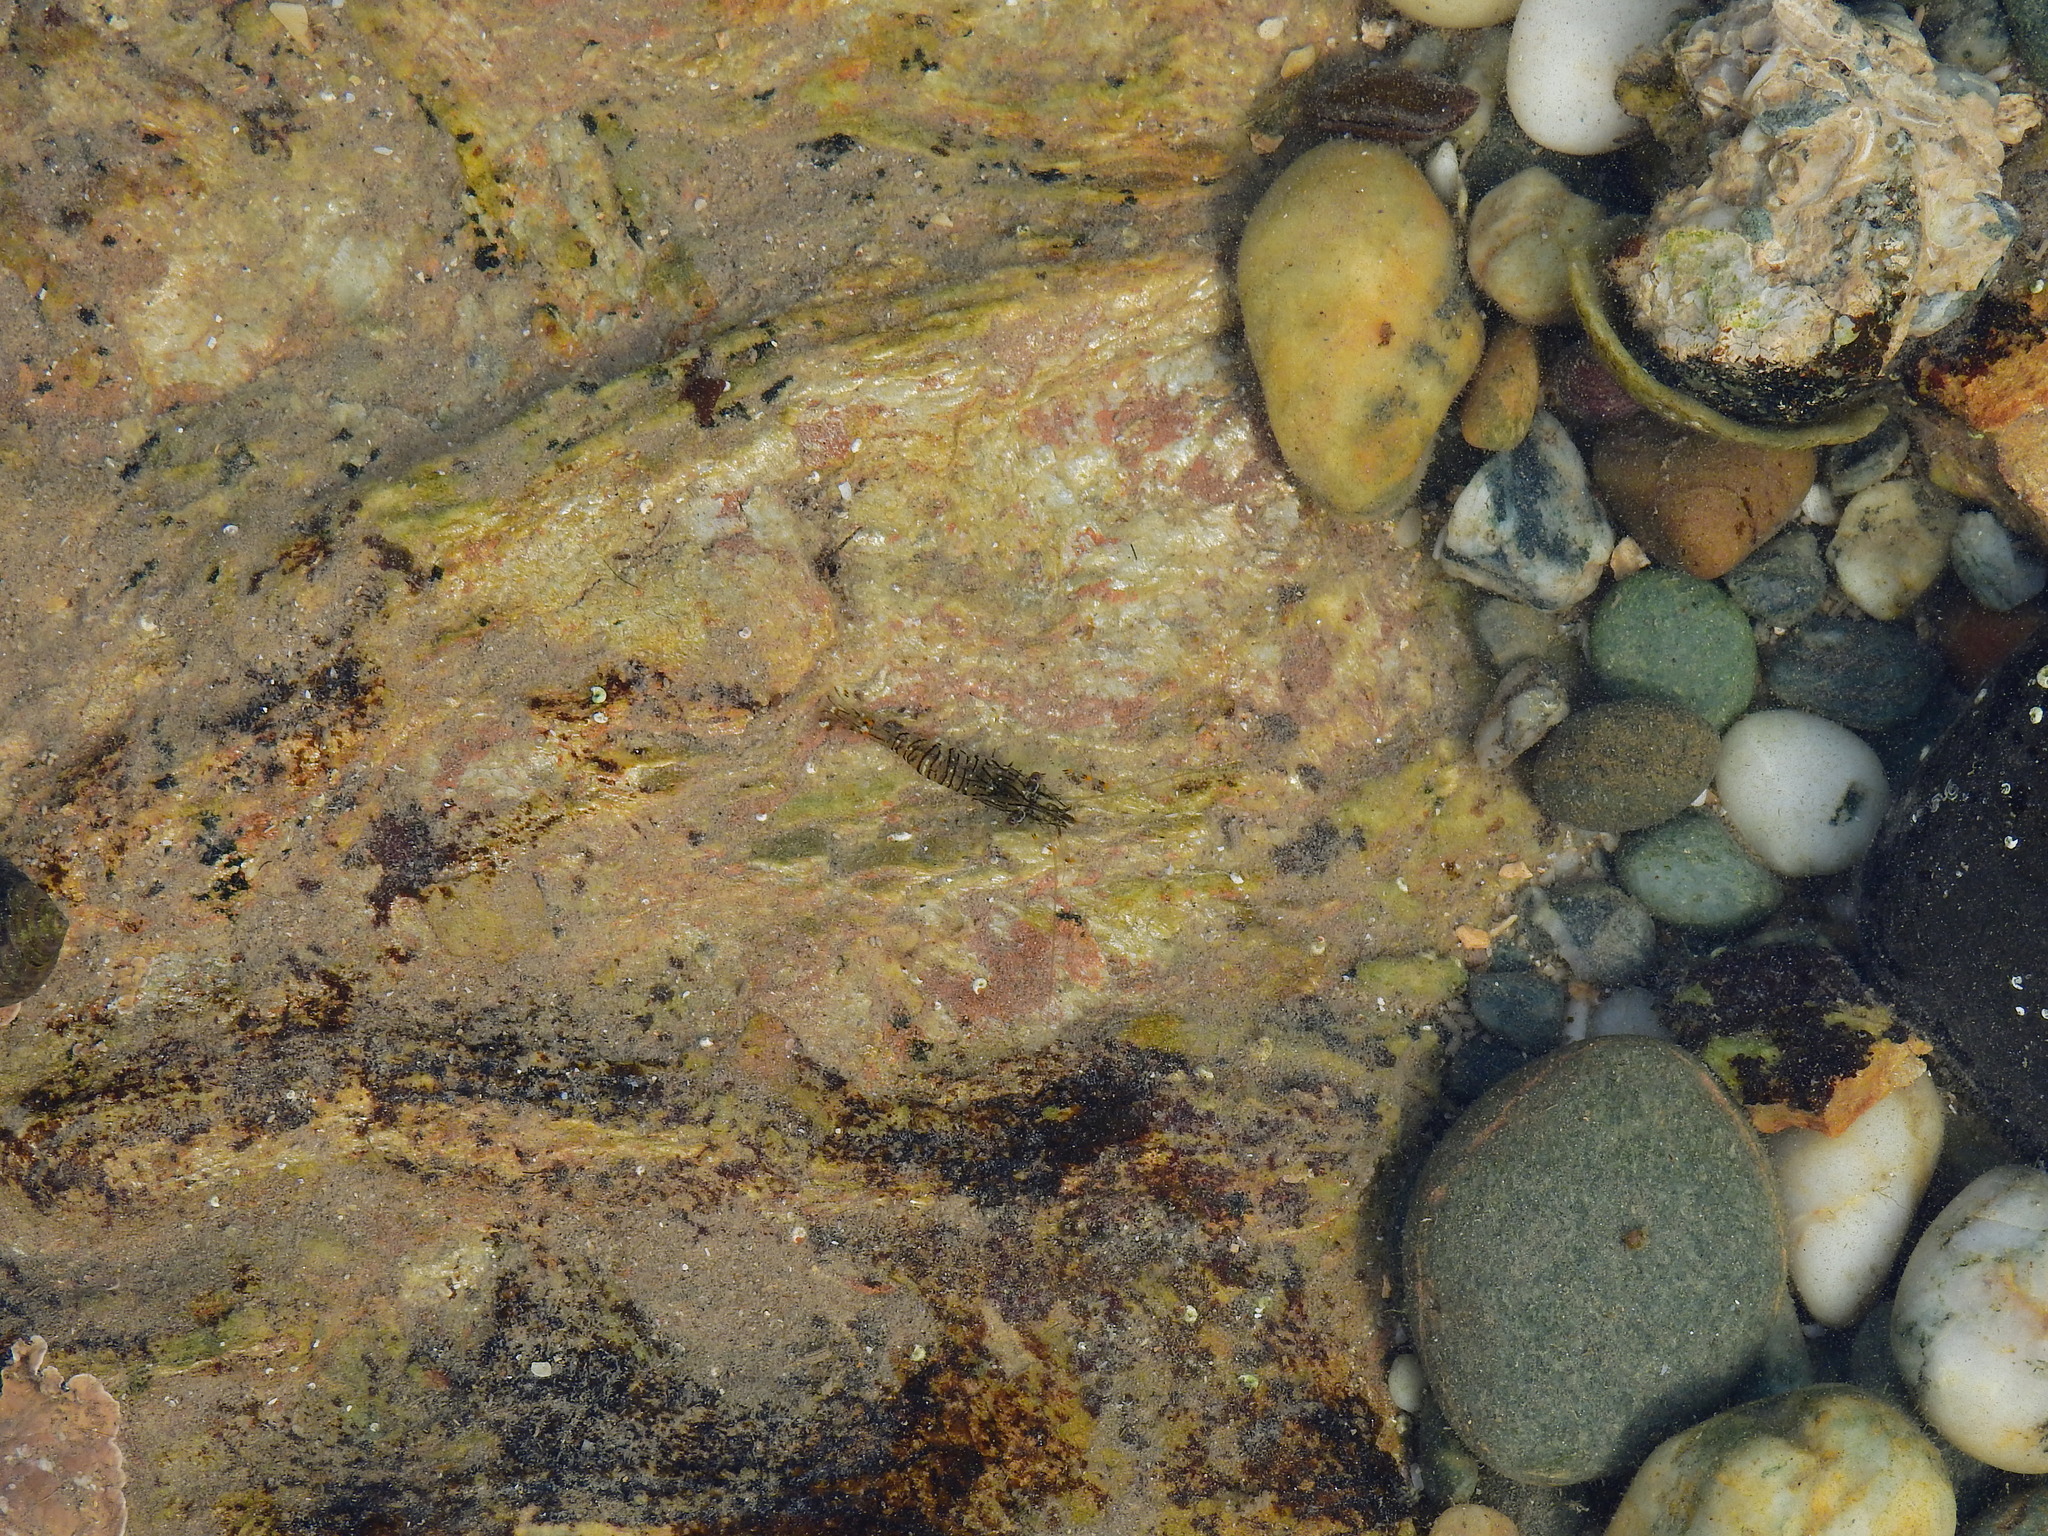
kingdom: Animalia
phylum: Arthropoda
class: Malacostraca
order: Decapoda
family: Palaemonidae
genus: Palaemon
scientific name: Palaemon serratus
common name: Common prawn
